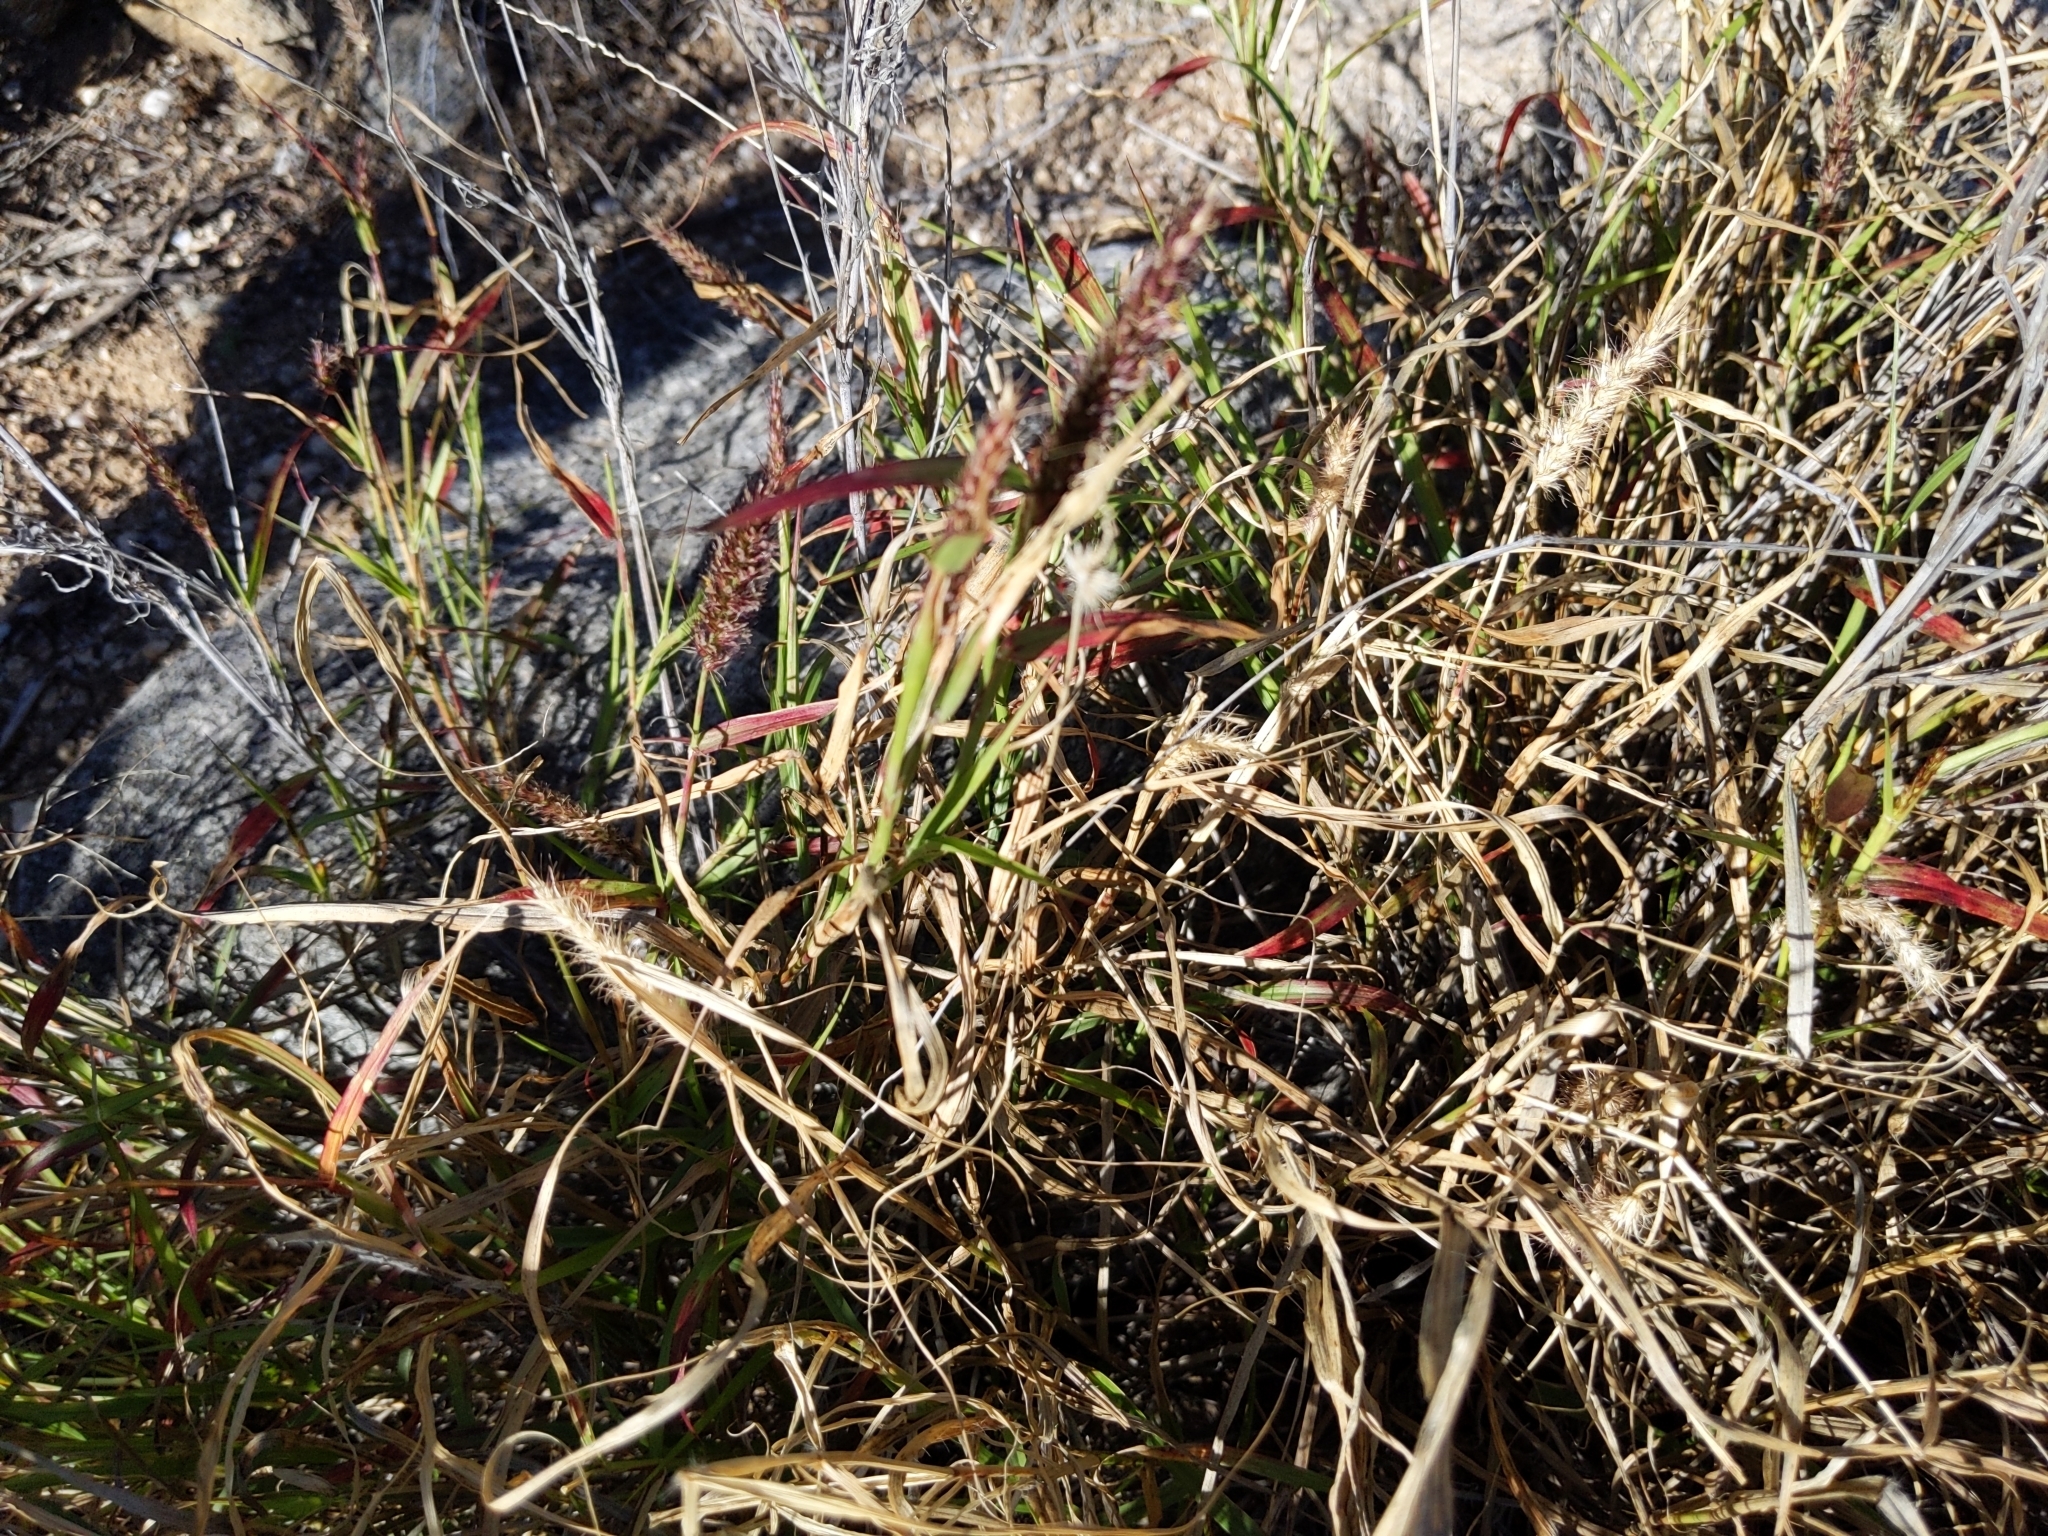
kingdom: Plantae
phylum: Tracheophyta
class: Liliopsida
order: Poales
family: Poaceae
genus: Cenchrus
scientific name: Cenchrus ciliaris
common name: Buffelgrass
